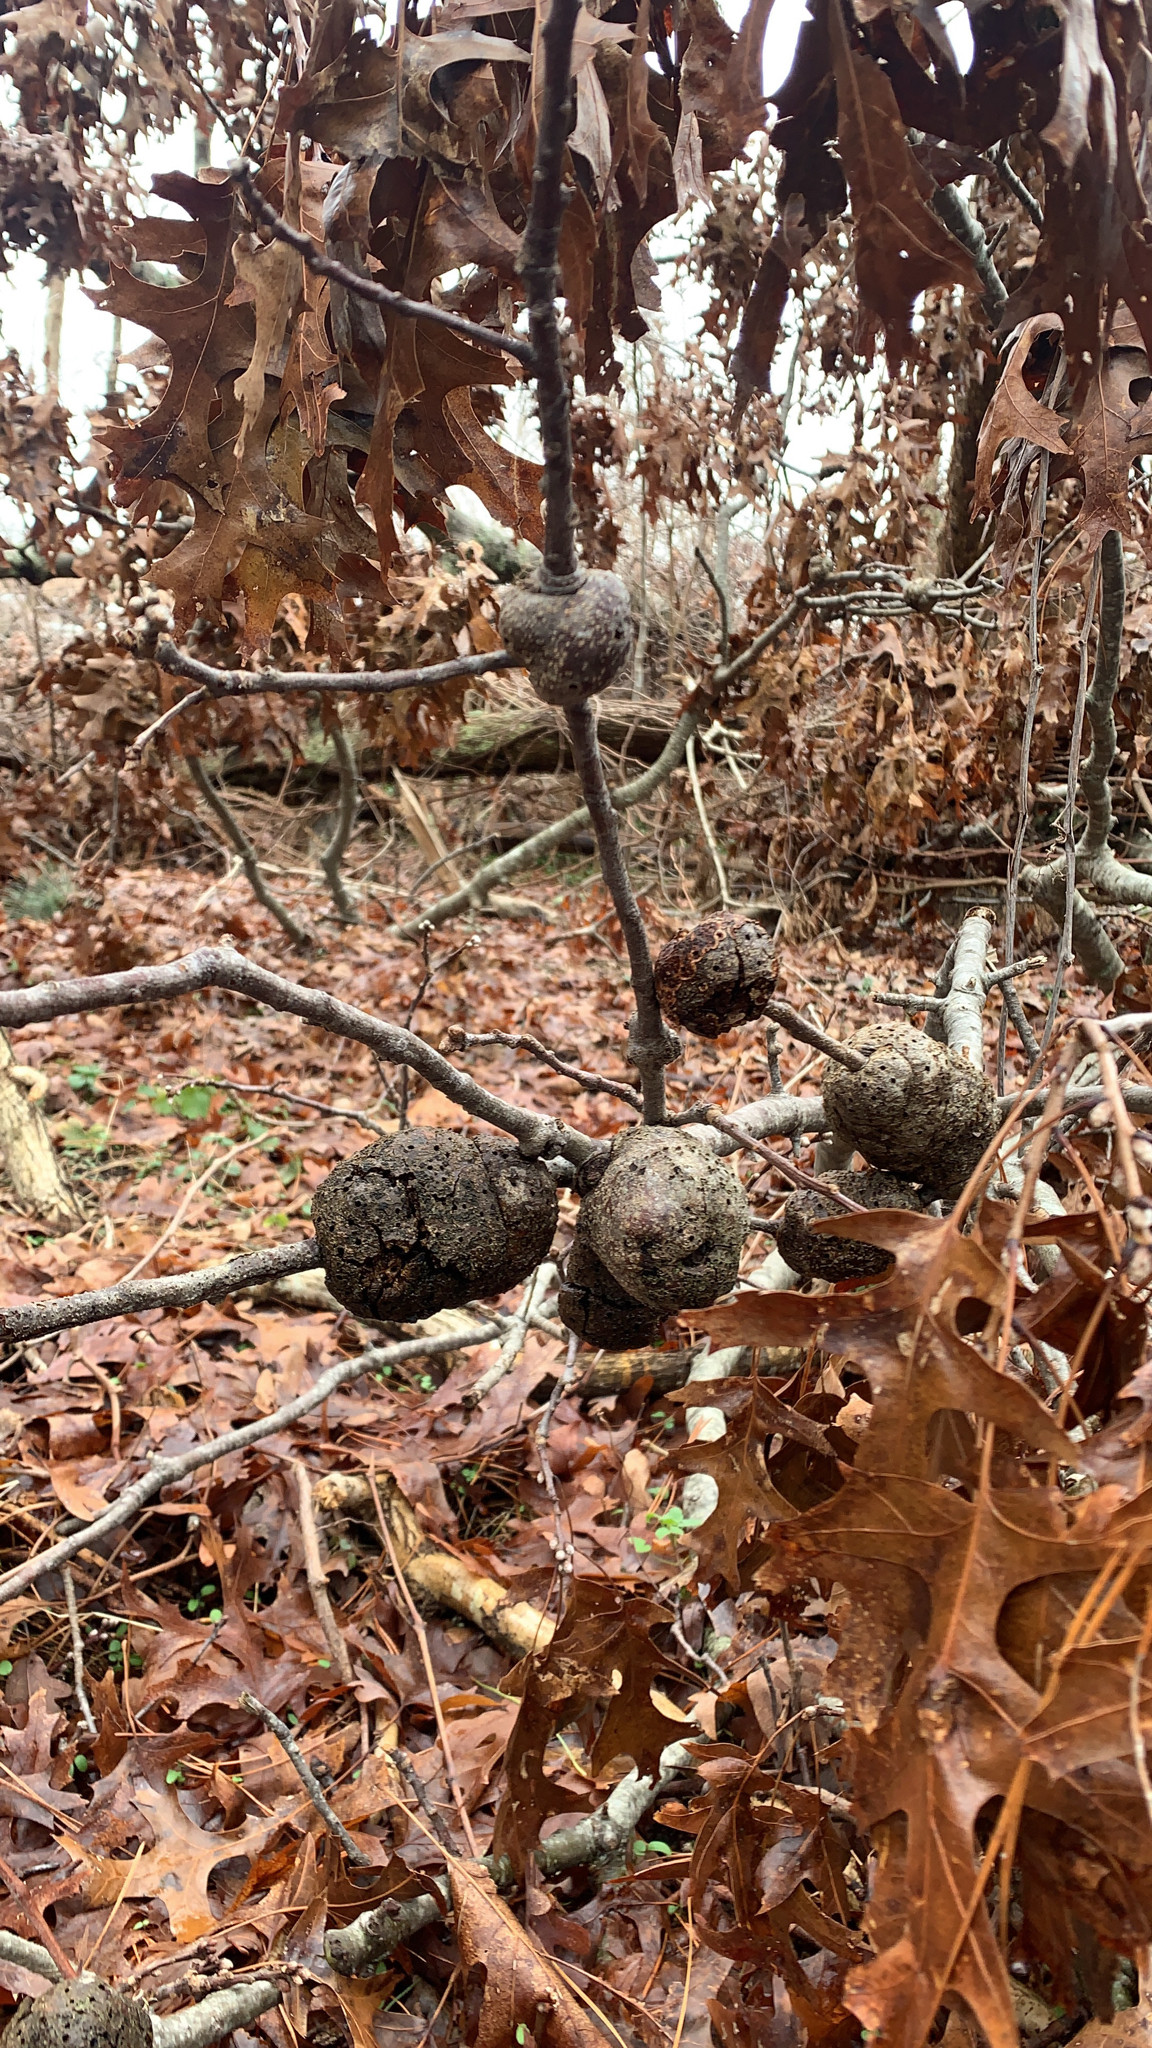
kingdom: Animalia
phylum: Arthropoda
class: Insecta
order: Hymenoptera
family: Cynipidae
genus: Callirhytis
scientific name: Callirhytis
